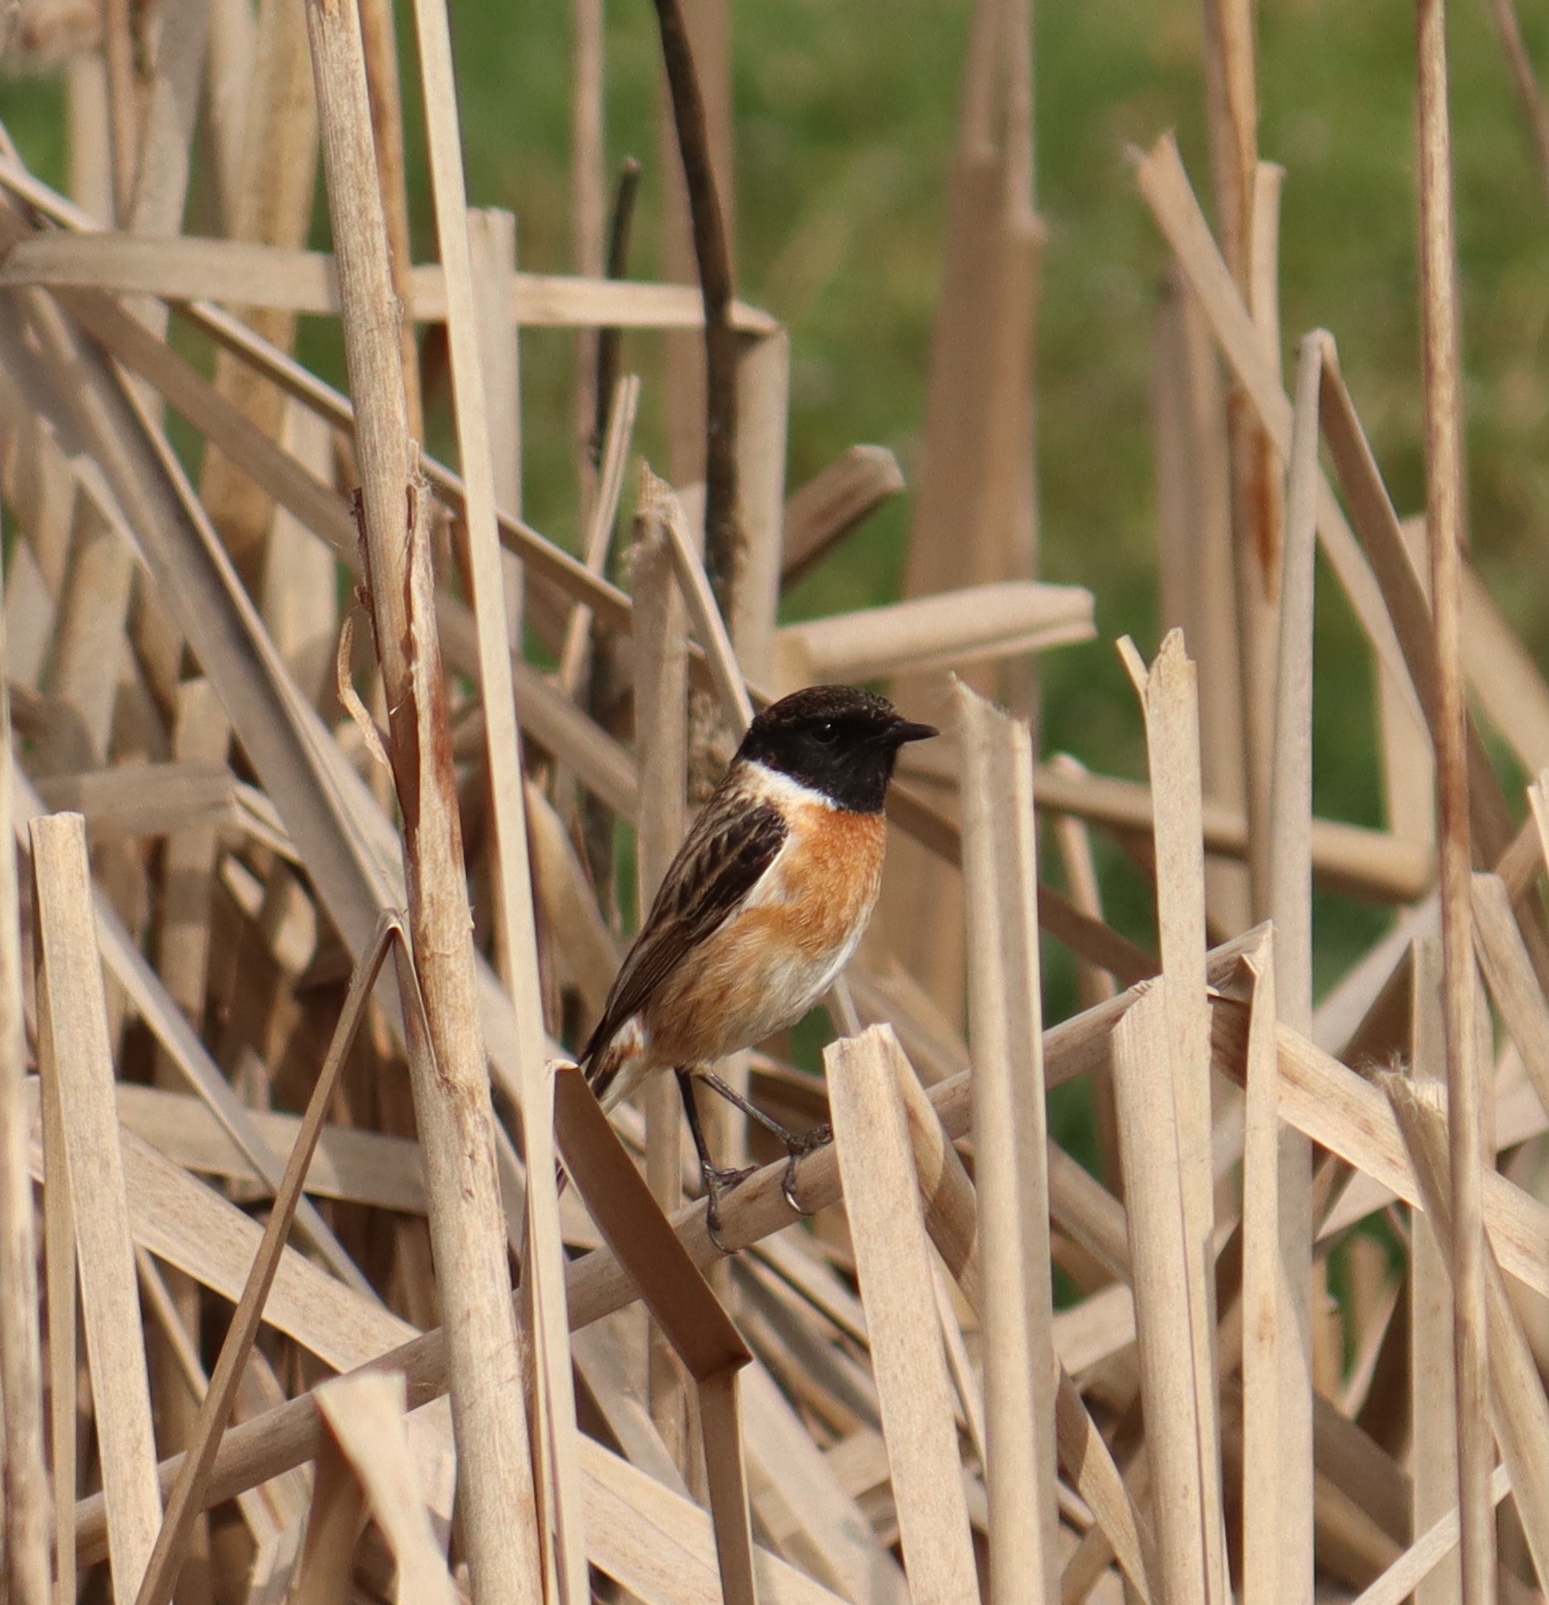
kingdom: Animalia
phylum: Chordata
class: Aves
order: Passeriformes
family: Muscicapidae
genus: Saxicola
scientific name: Saxicola rubicola
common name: European stonechat
